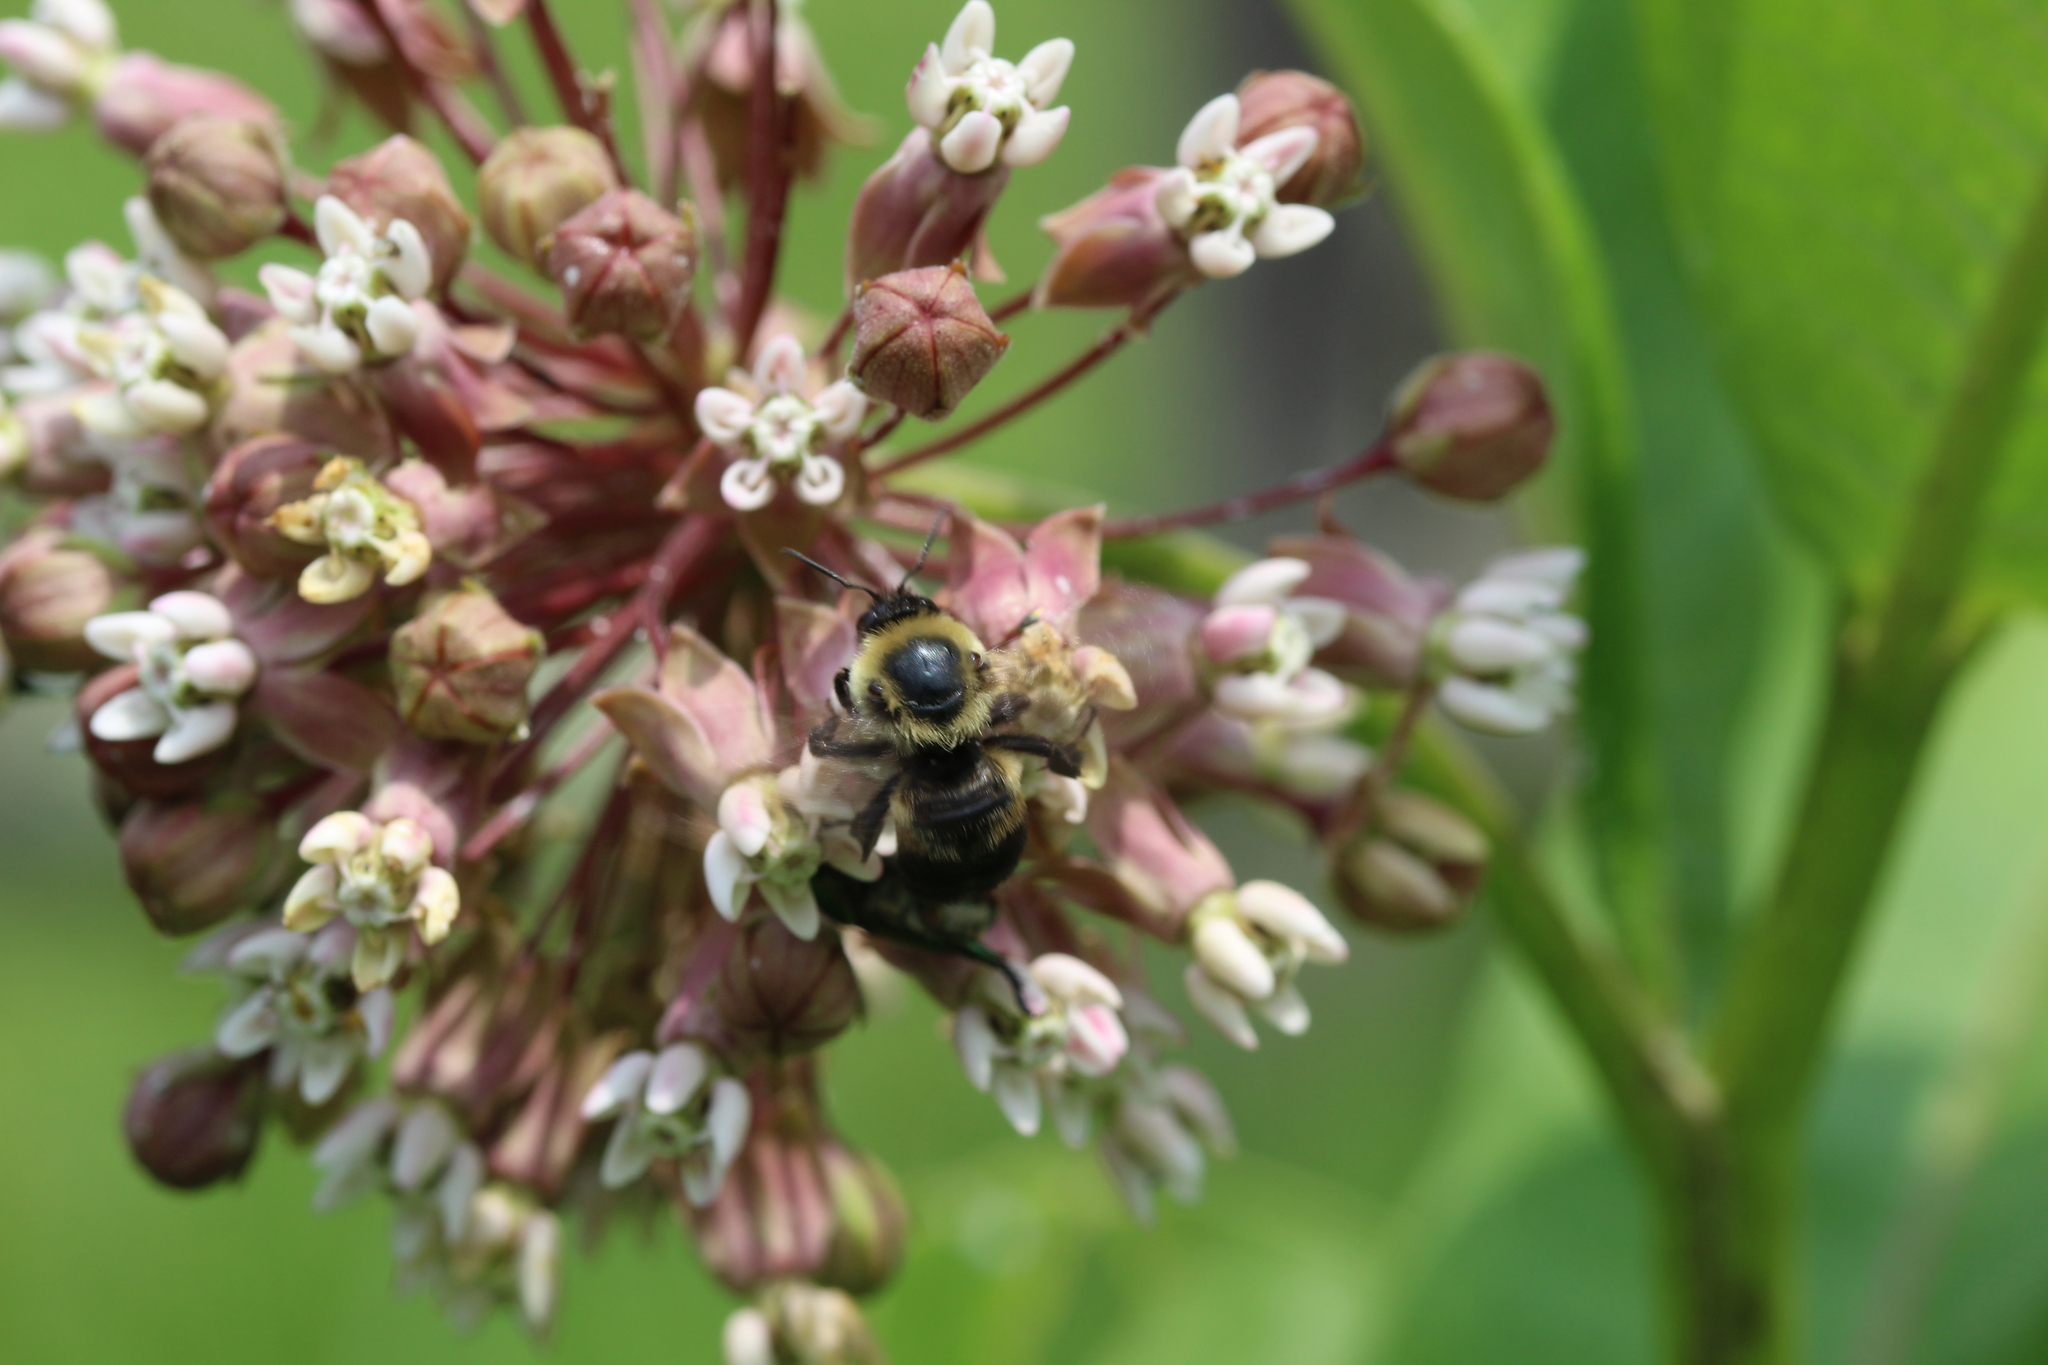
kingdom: Animalia
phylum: Arthropoda
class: Insecta
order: Hymenoptera
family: Apidae
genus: Bombus
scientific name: Bombus griseocollis
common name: Brown-belted bumble bee
